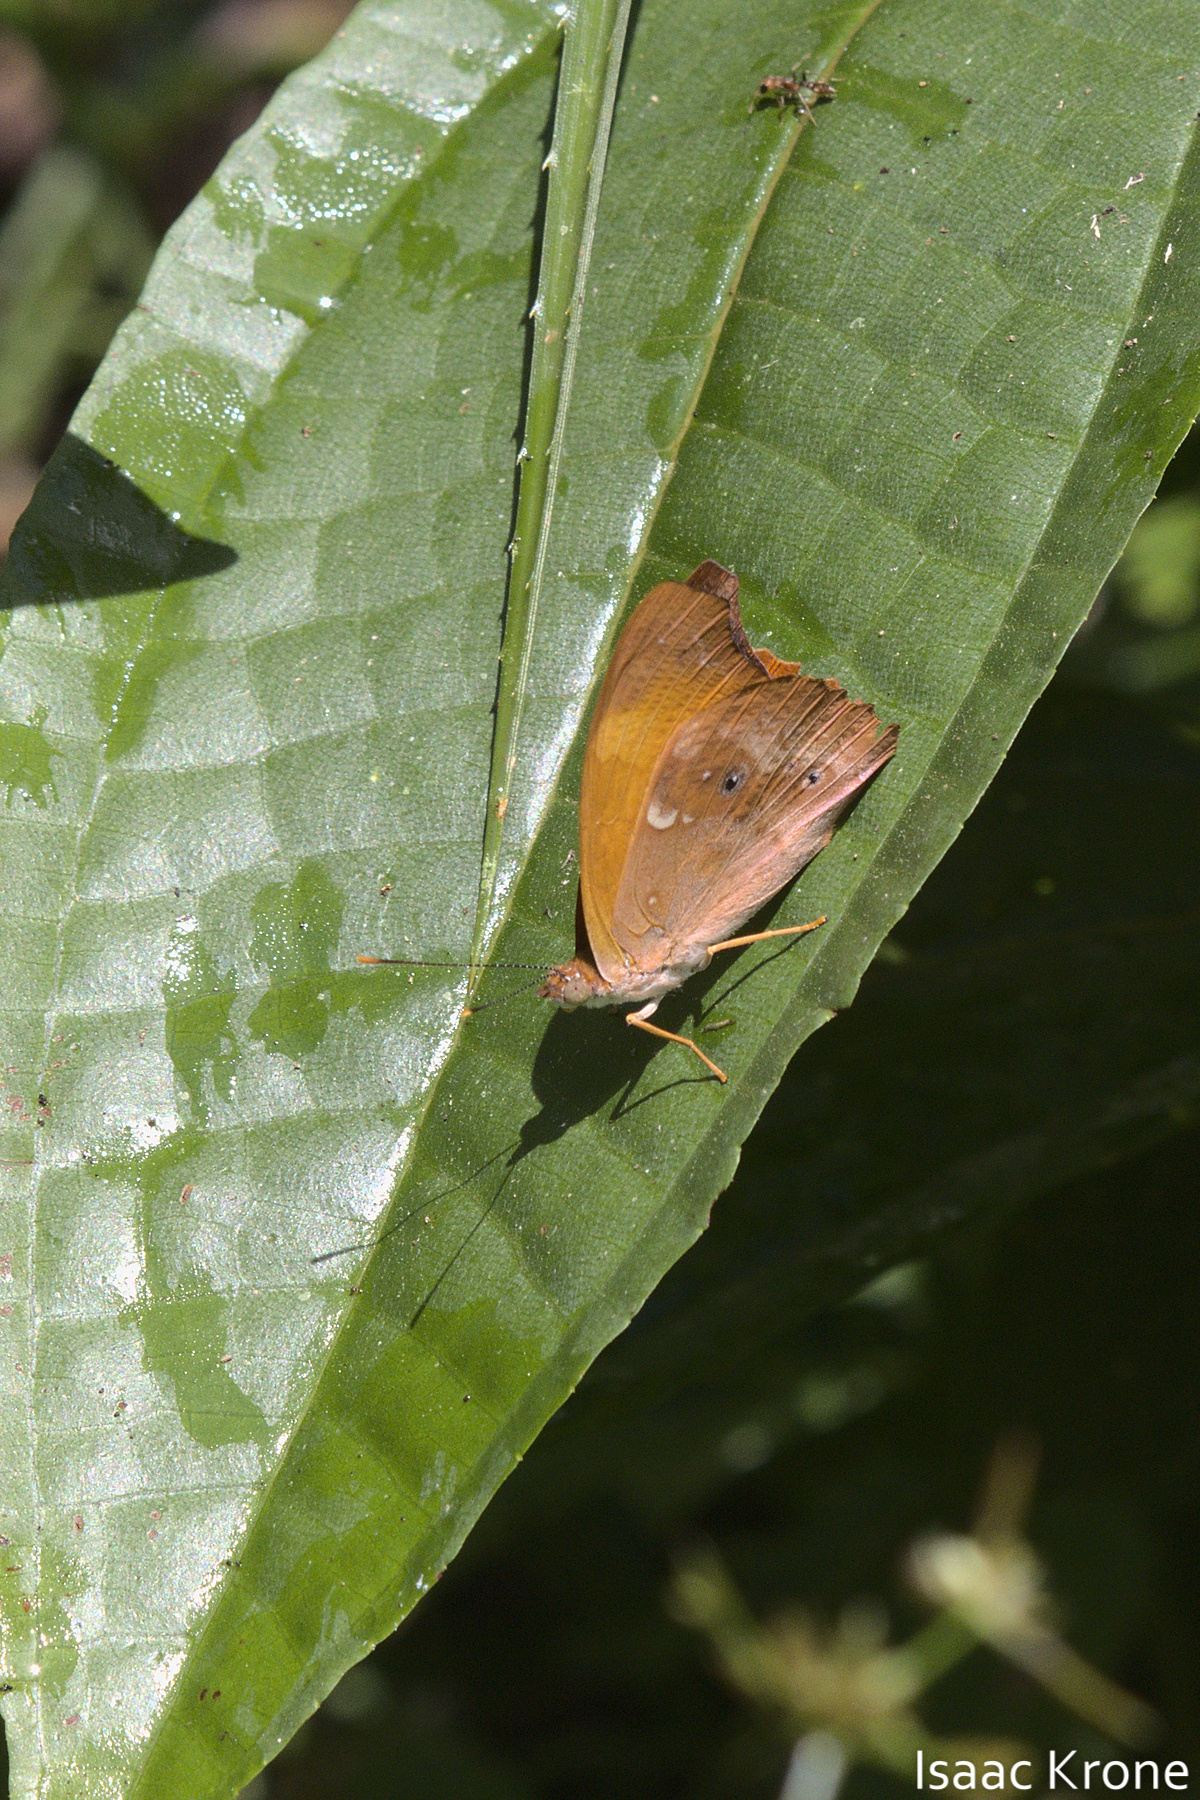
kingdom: Animalia
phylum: Arthropoda
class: Insecta
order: Lepidoptera
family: Nymphalidae
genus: Temenis
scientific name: Temenis laothoe
